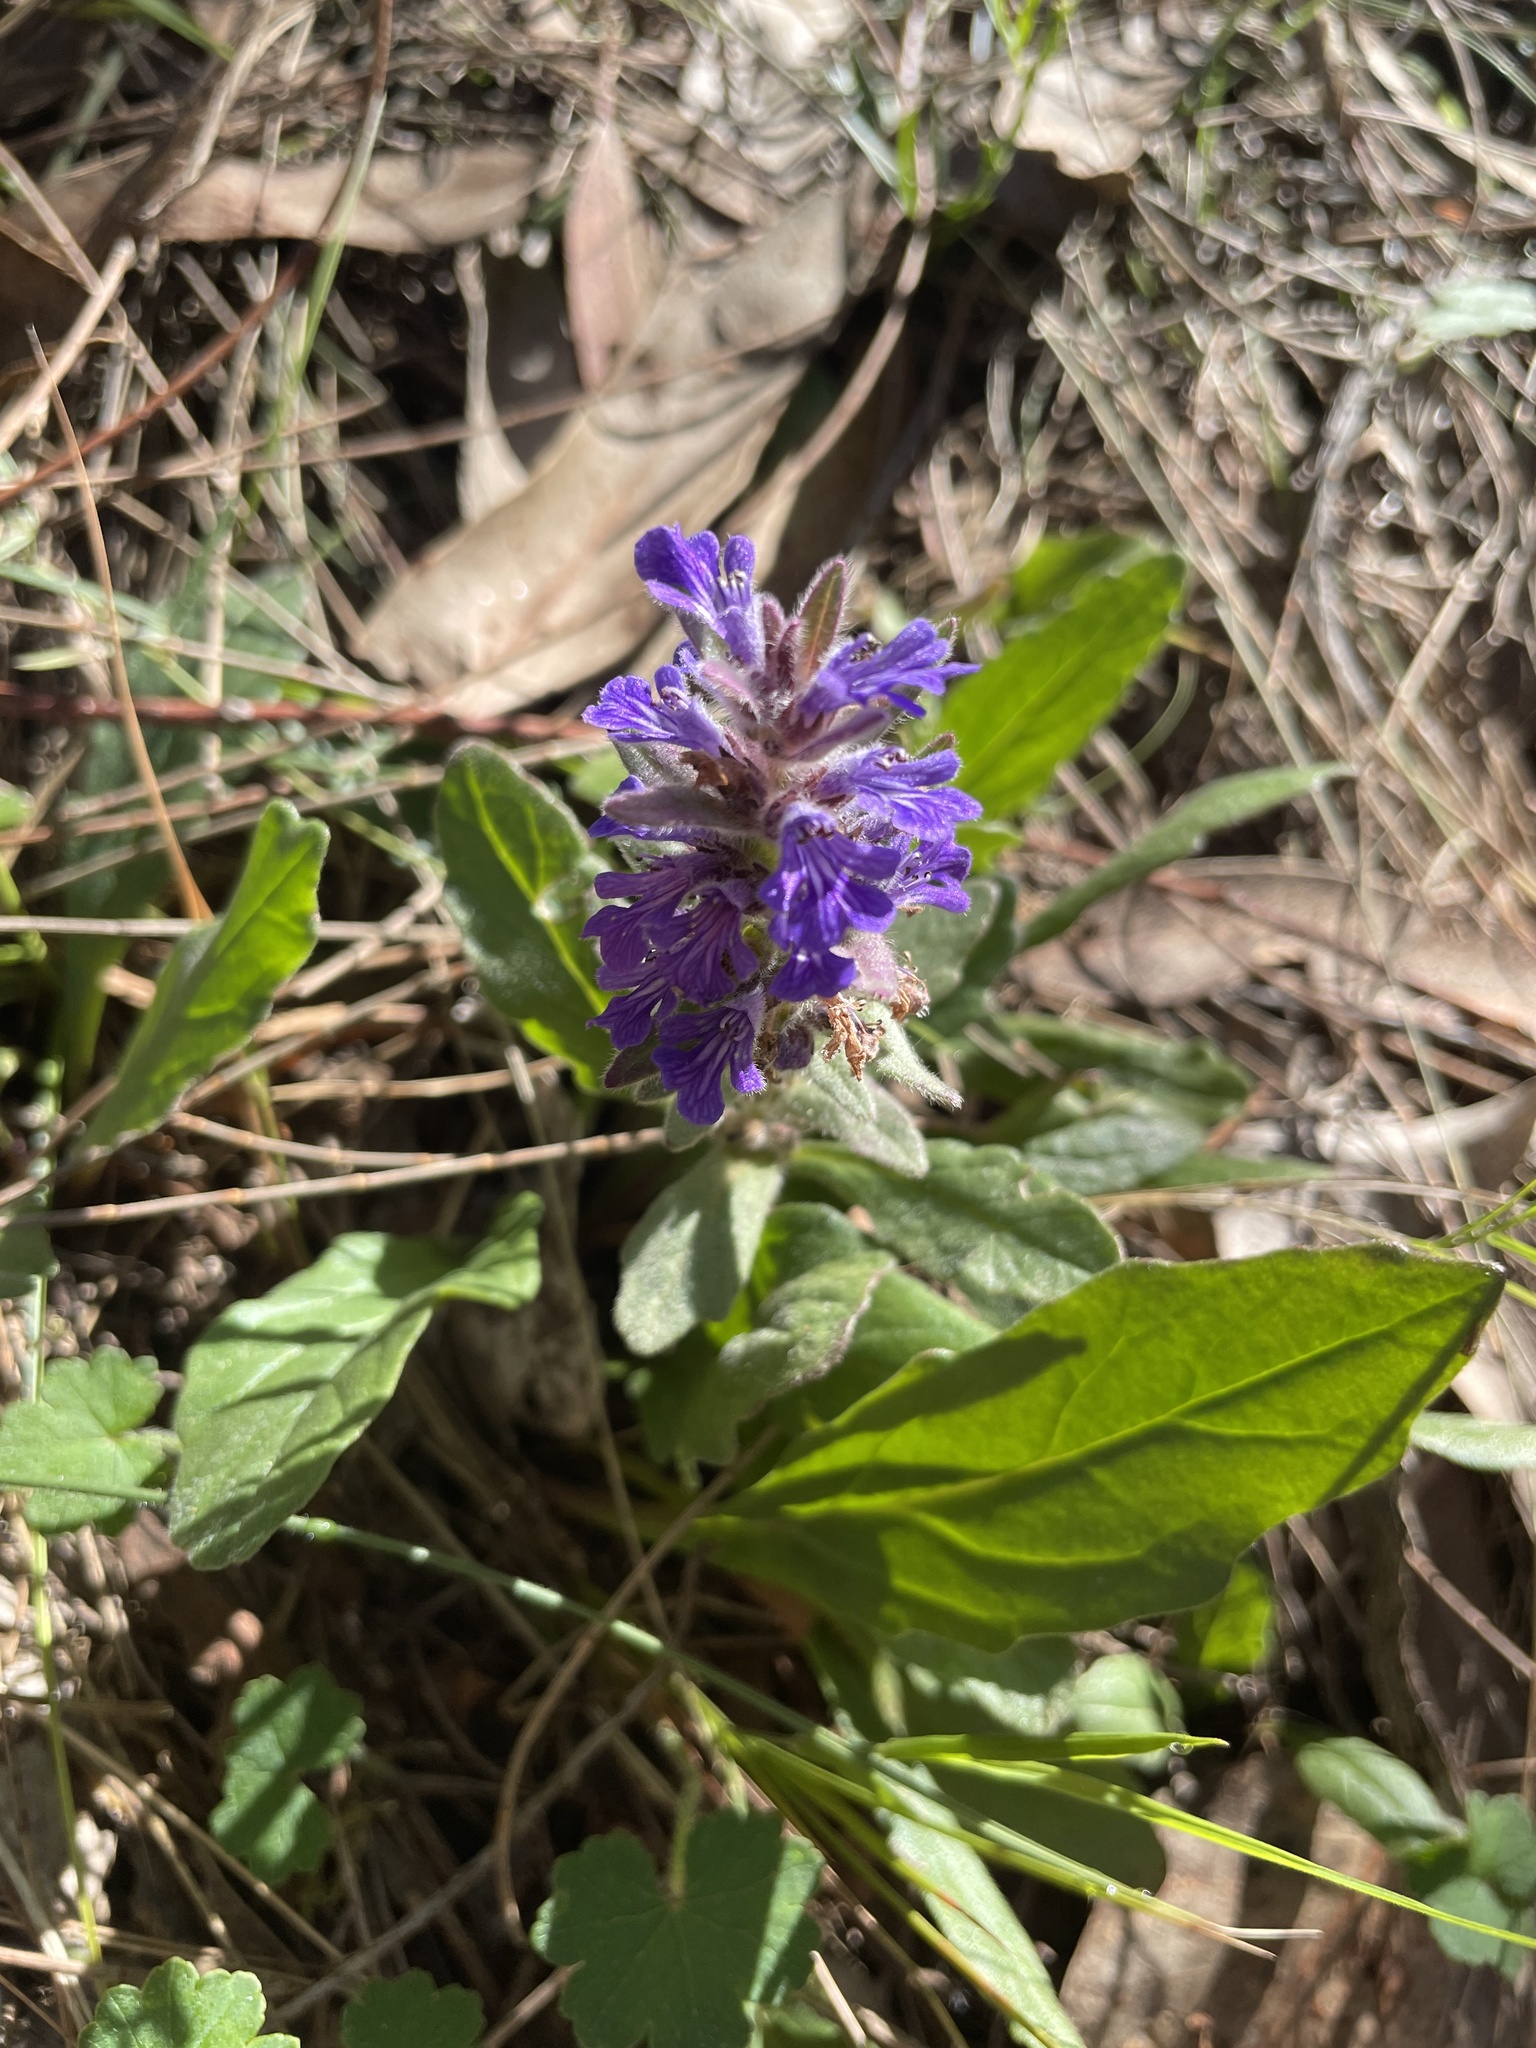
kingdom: Plantae
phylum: Tracheophyta
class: Magnoliopsida
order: Lamiales
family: Lamiaceae
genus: Ajuga
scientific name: Ajuga australis
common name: Australian bugle
